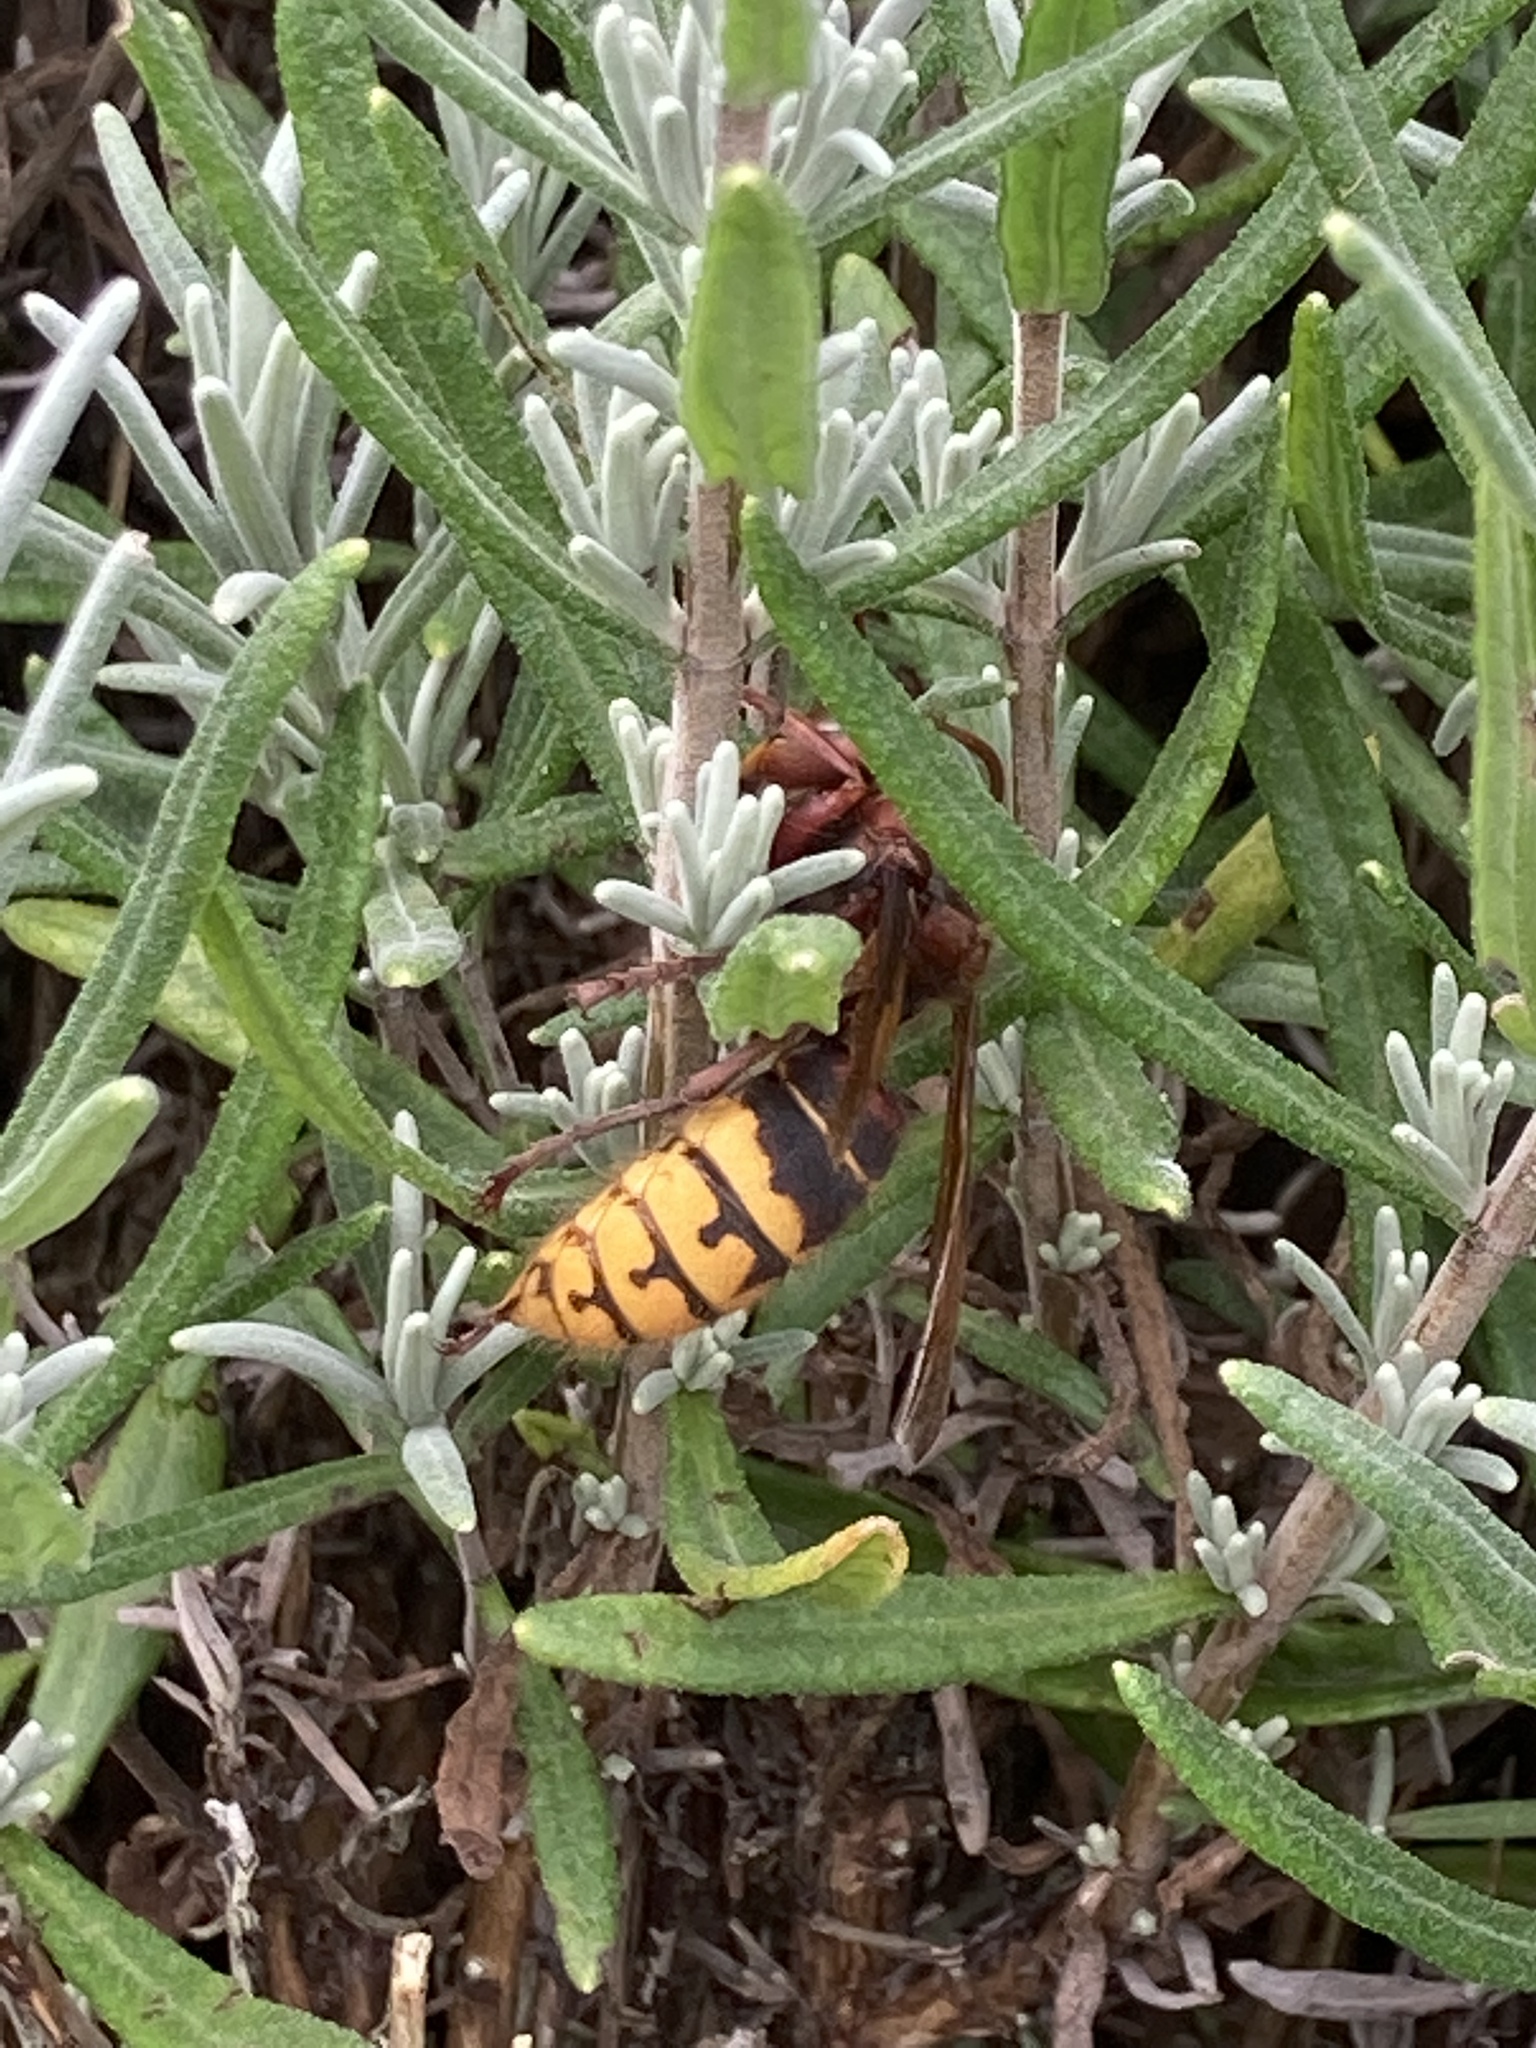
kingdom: Animalia
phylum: Arthropoda
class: Insecta
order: Hymenoptera
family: Vespidae
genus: Vespa
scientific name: Vespa crabro
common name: Hornet
